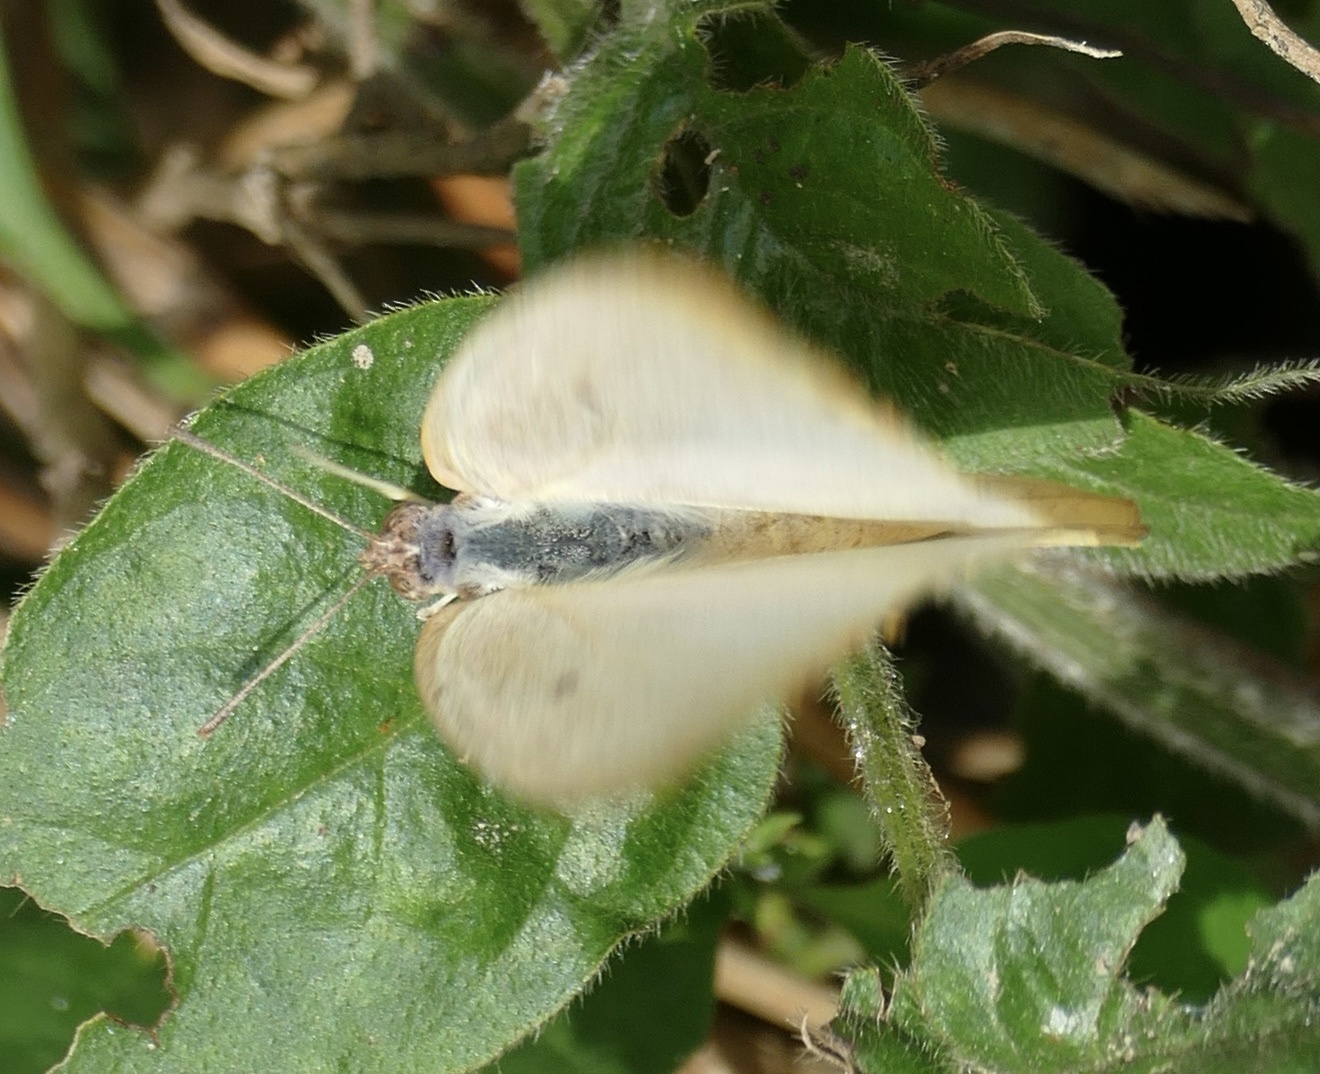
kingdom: Animalia
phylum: Arthropoda
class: Insecta
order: Lepidoptera
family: Pieridae
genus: Catopsilia
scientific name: Catopsilia florella
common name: African migrant
